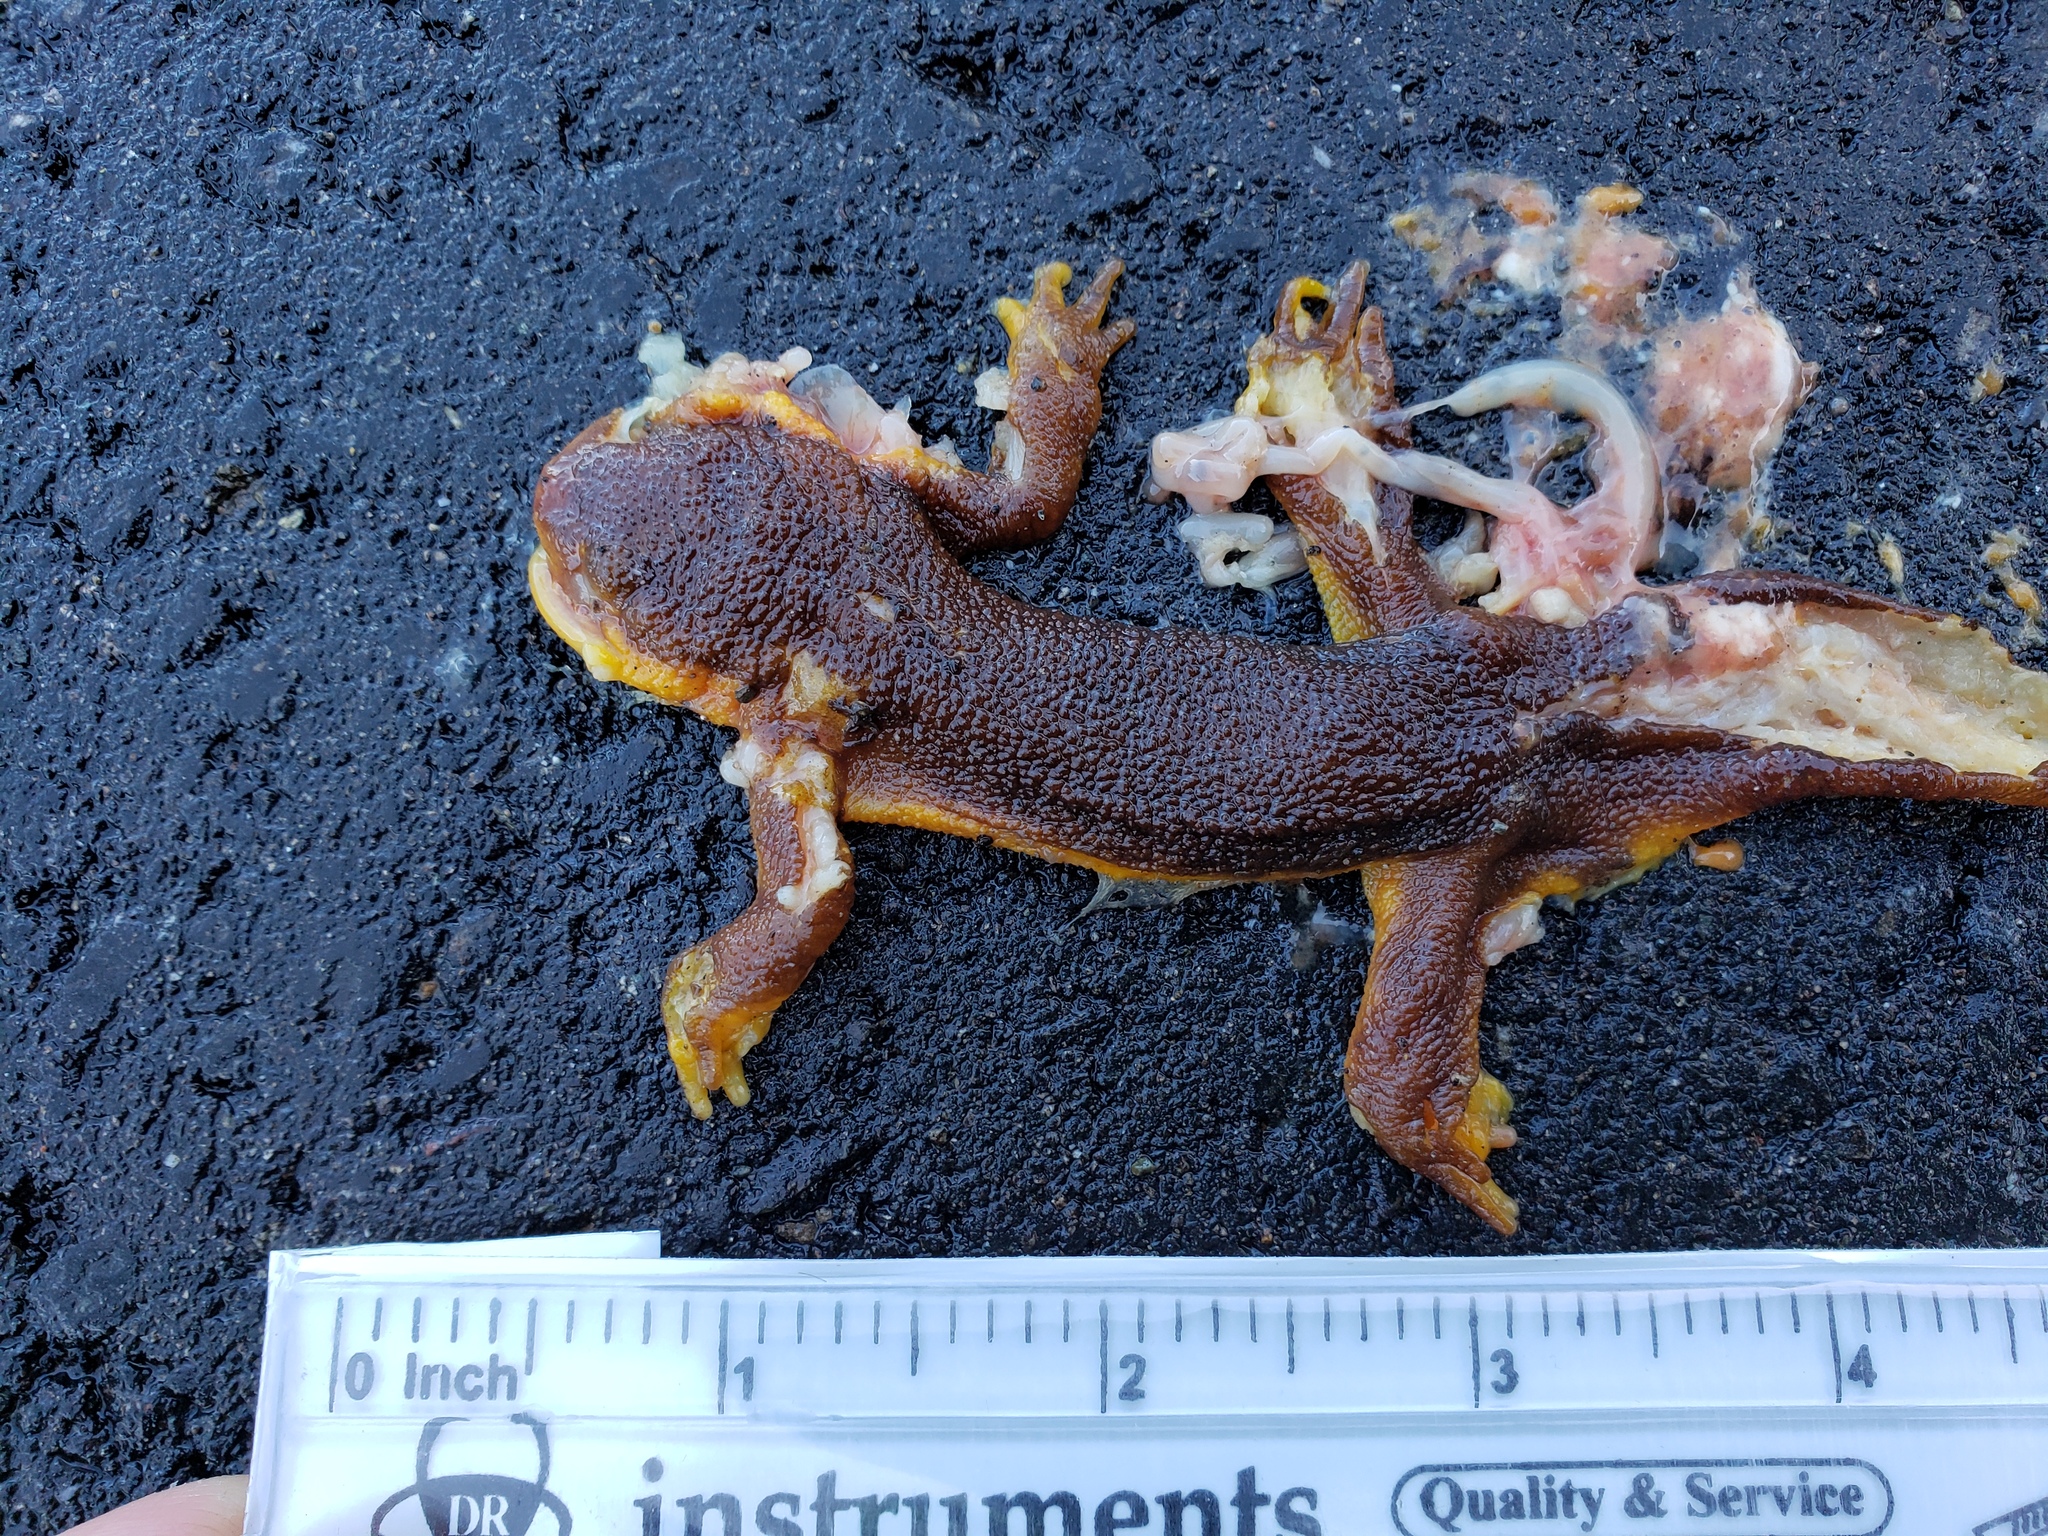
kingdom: Animalia
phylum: Chordata
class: Amphibia
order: Caudata
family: Salamandridae
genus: Taricha
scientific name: Taricha
